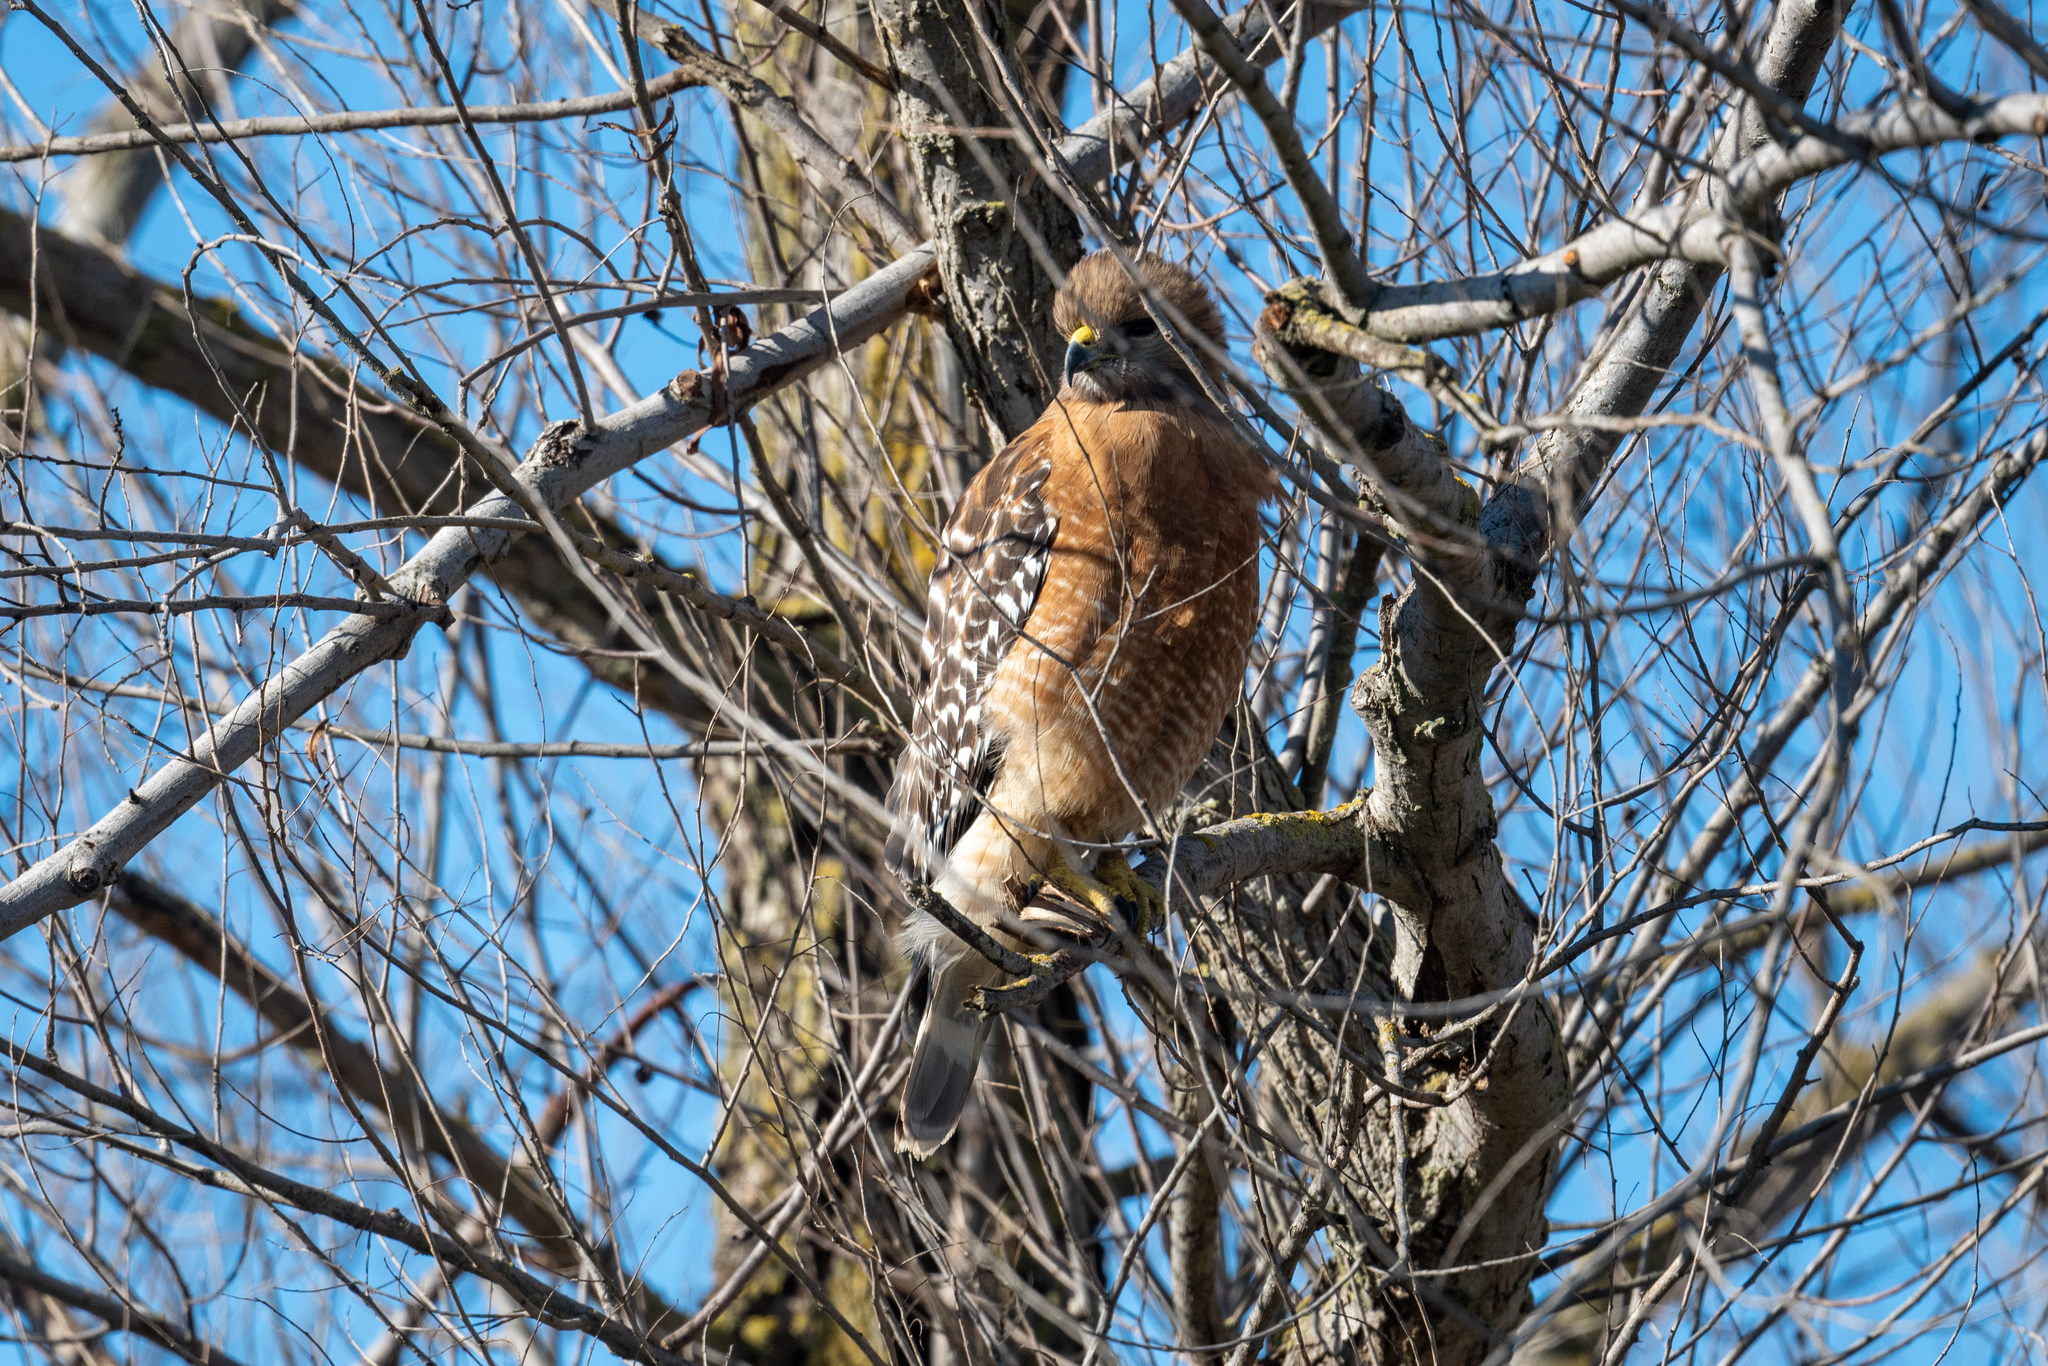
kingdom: Animalia
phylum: Chordata
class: Aves
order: Accipitriformes
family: Accipitridae
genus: Buteo
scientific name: Buteo lineatus
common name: Red-shouldered hawk
